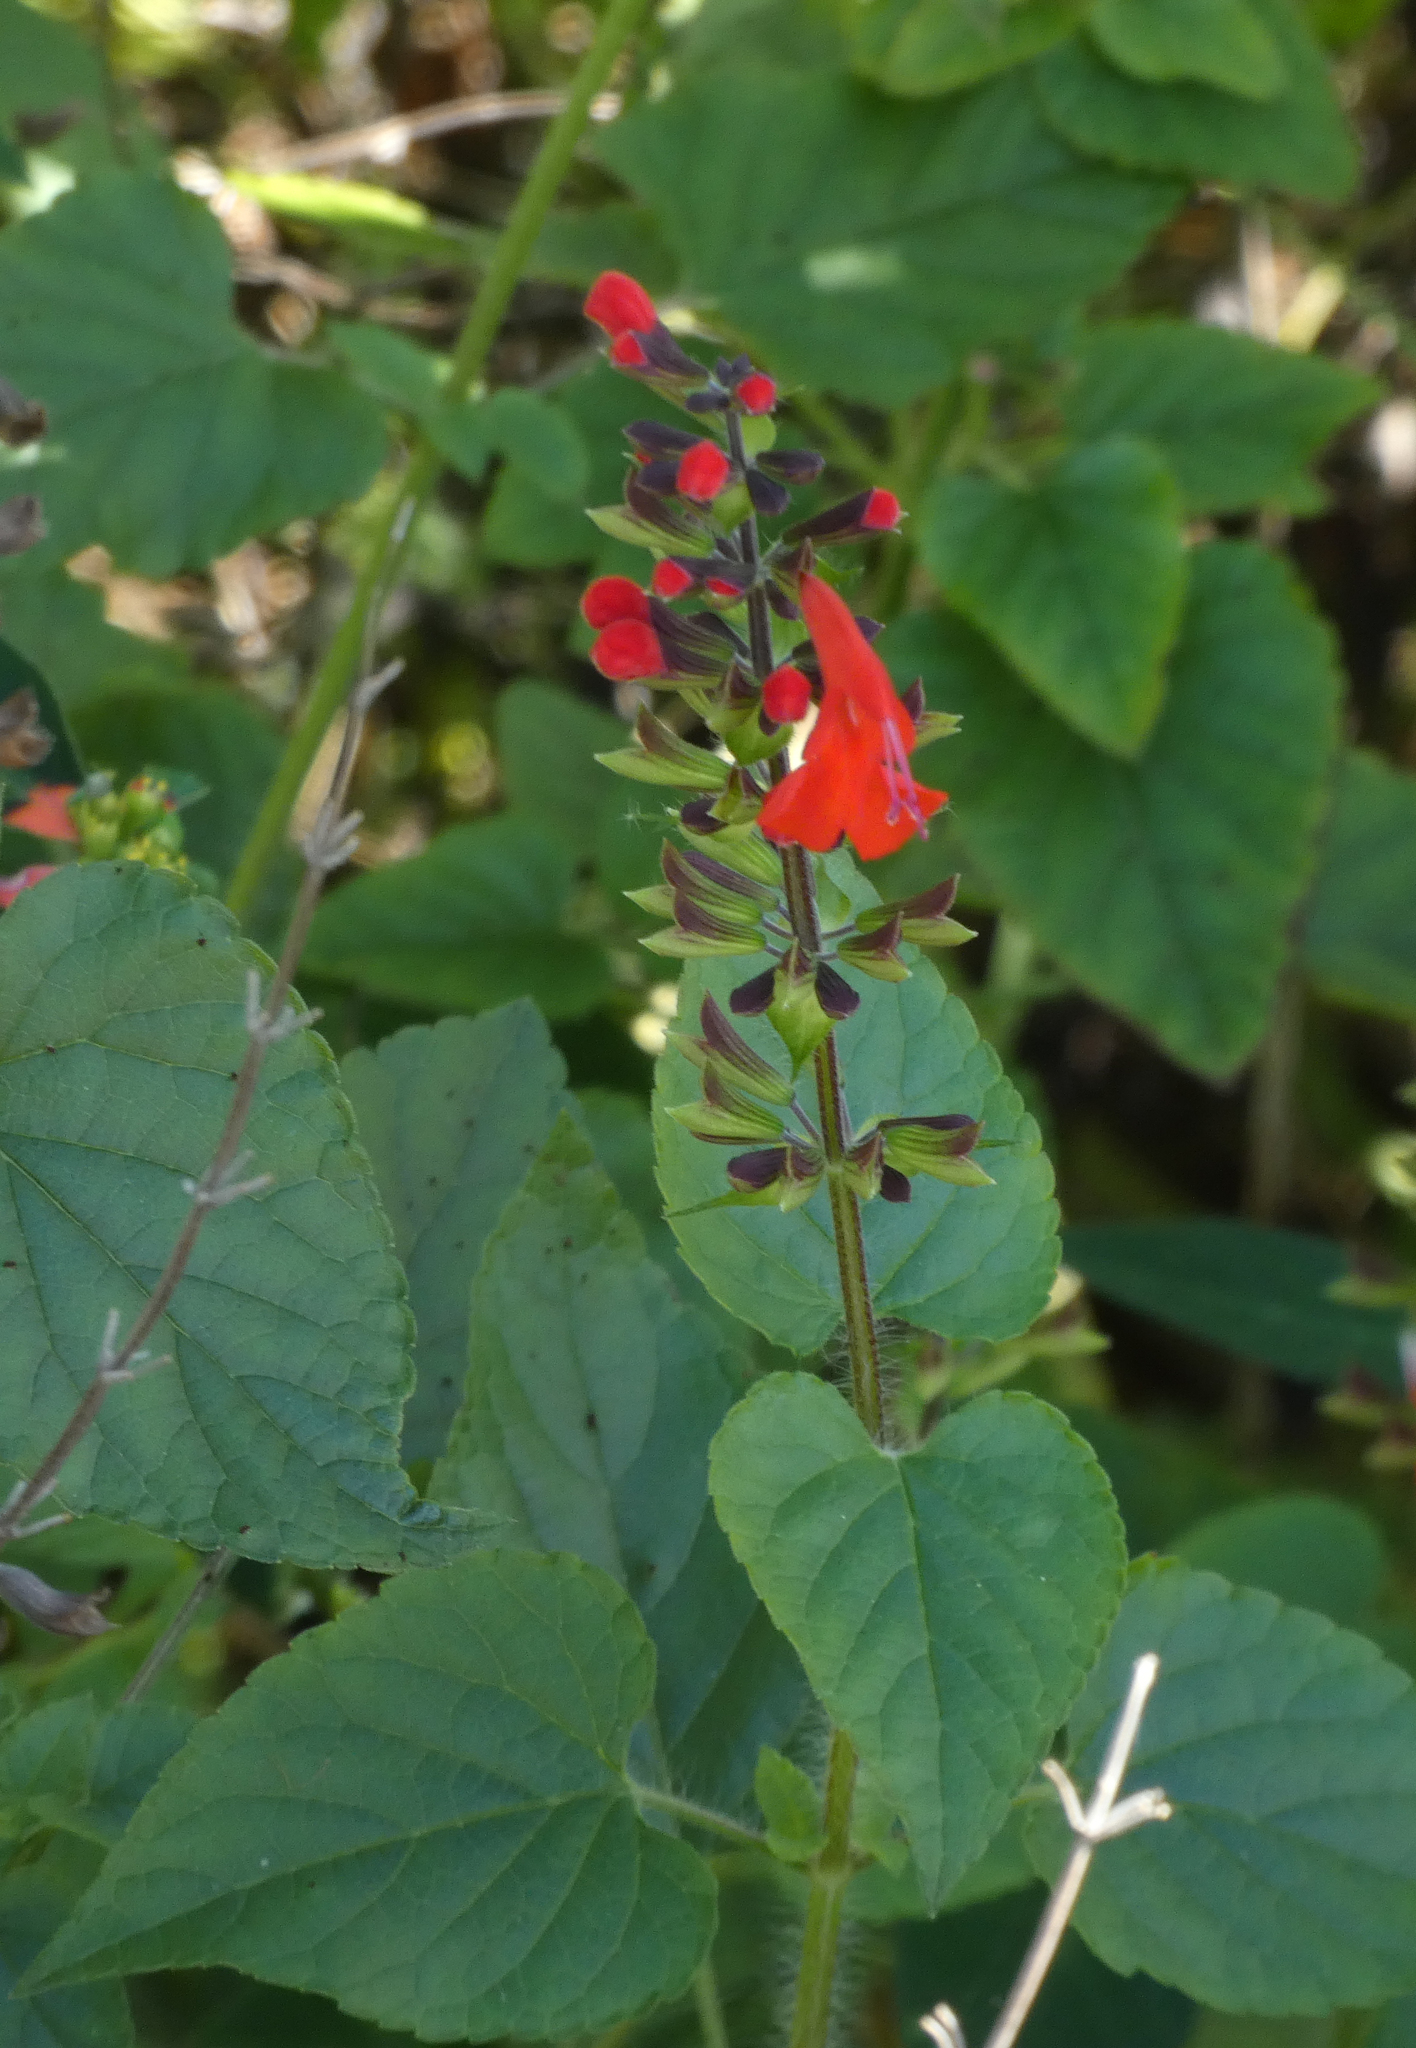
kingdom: Plantae
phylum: Tracheophyta
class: Magnoliopsida
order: Lamiales
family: Lamiaceae
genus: Salvia
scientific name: Salvia coccinea
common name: Blood sage
